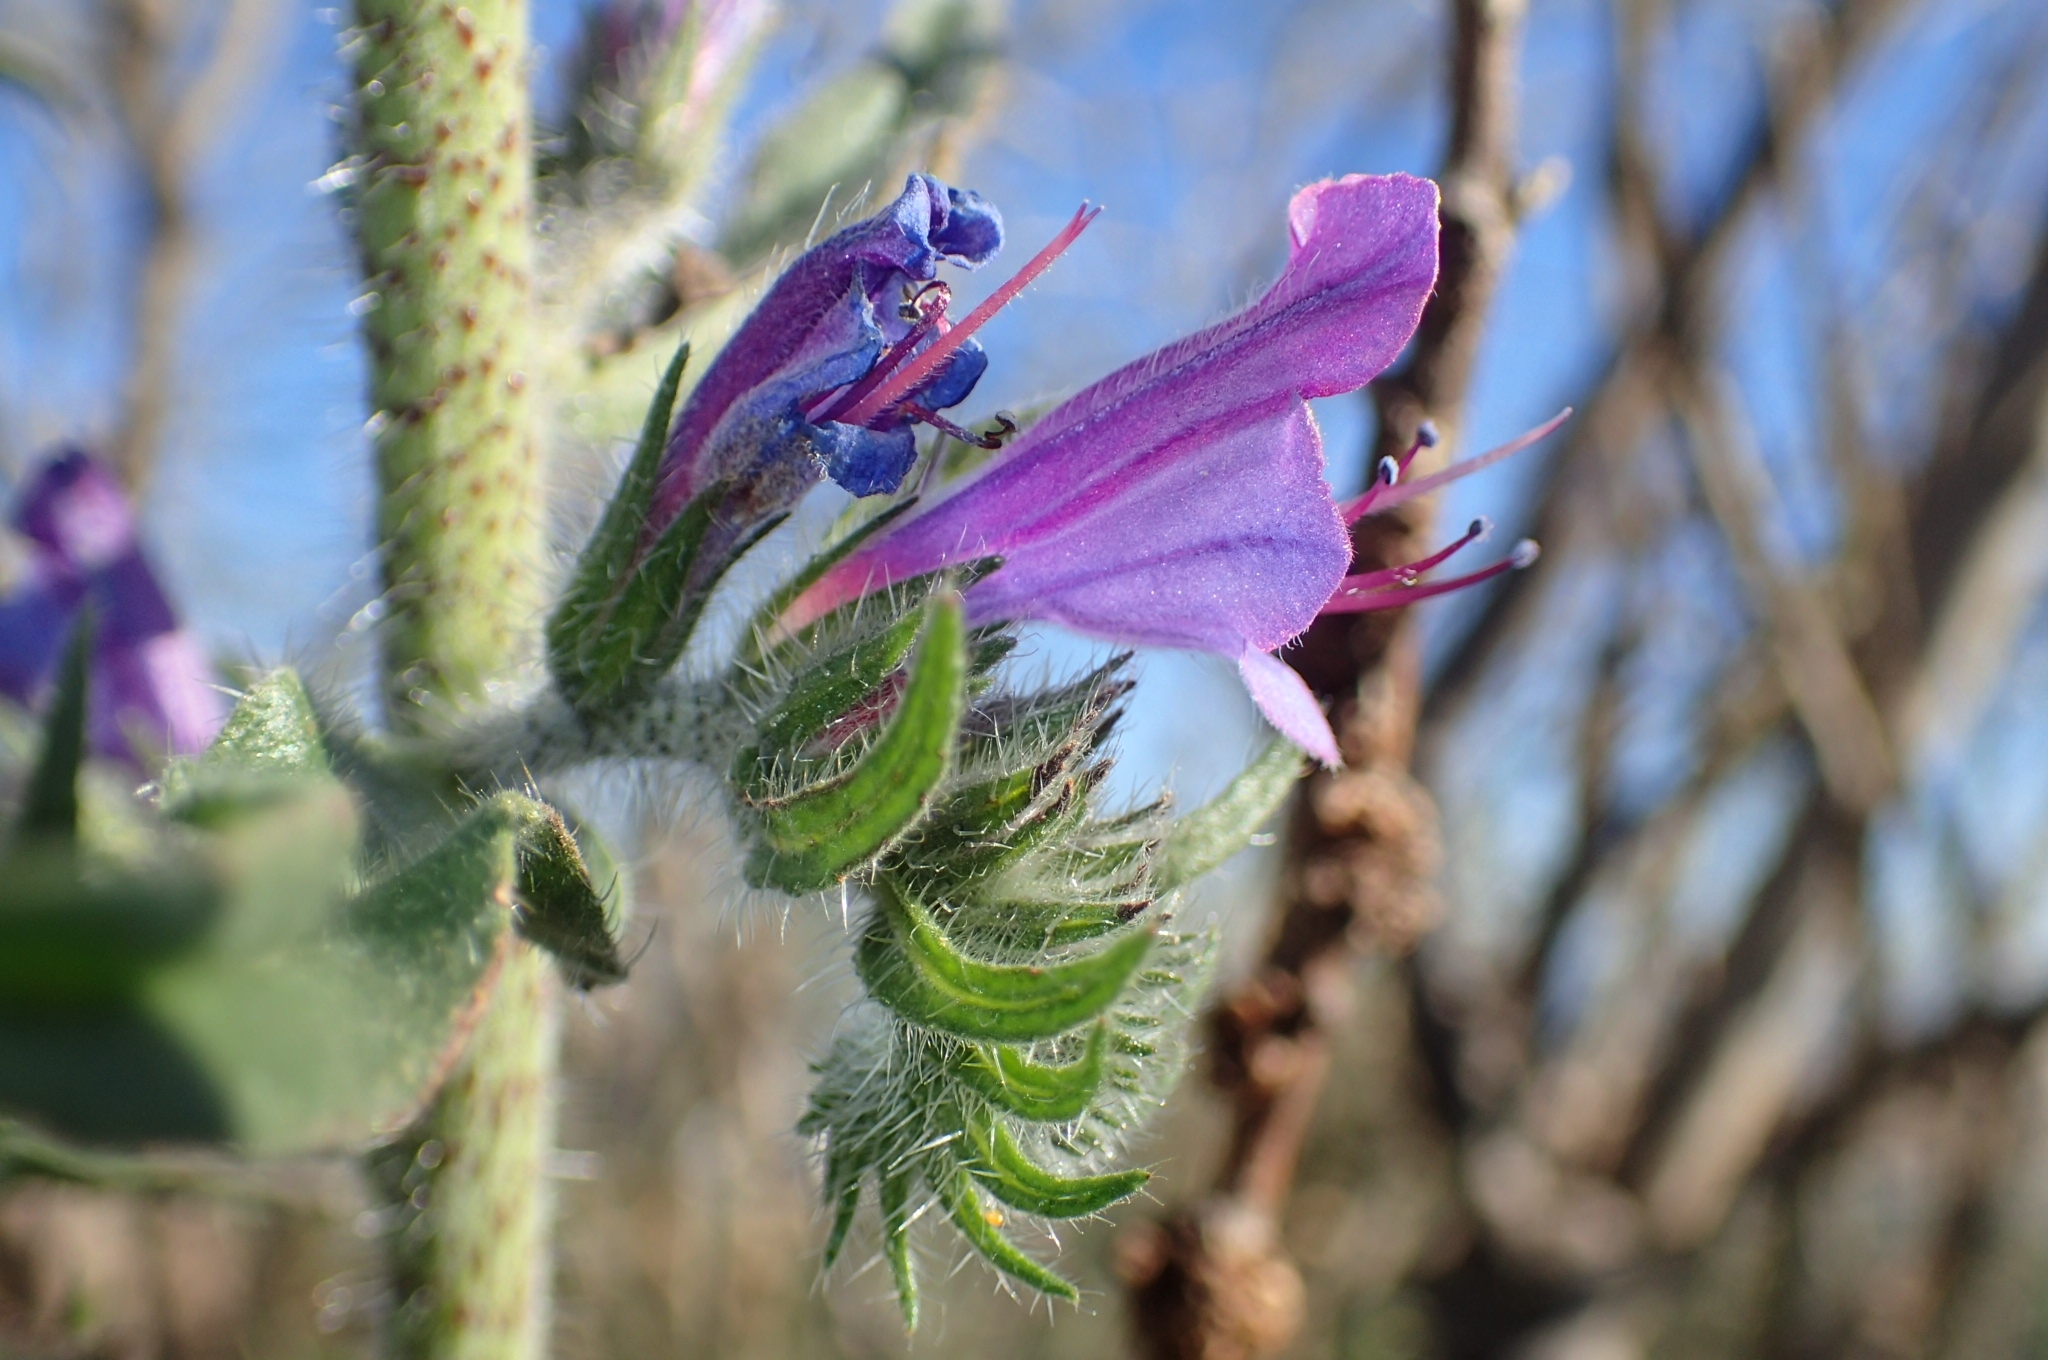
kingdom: Plantae
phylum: Tracheophyta
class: Magnoliopsida
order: Boraginales
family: Boraginaceae
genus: Echium
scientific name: Echium vulgare
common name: Common viper's bugloss
